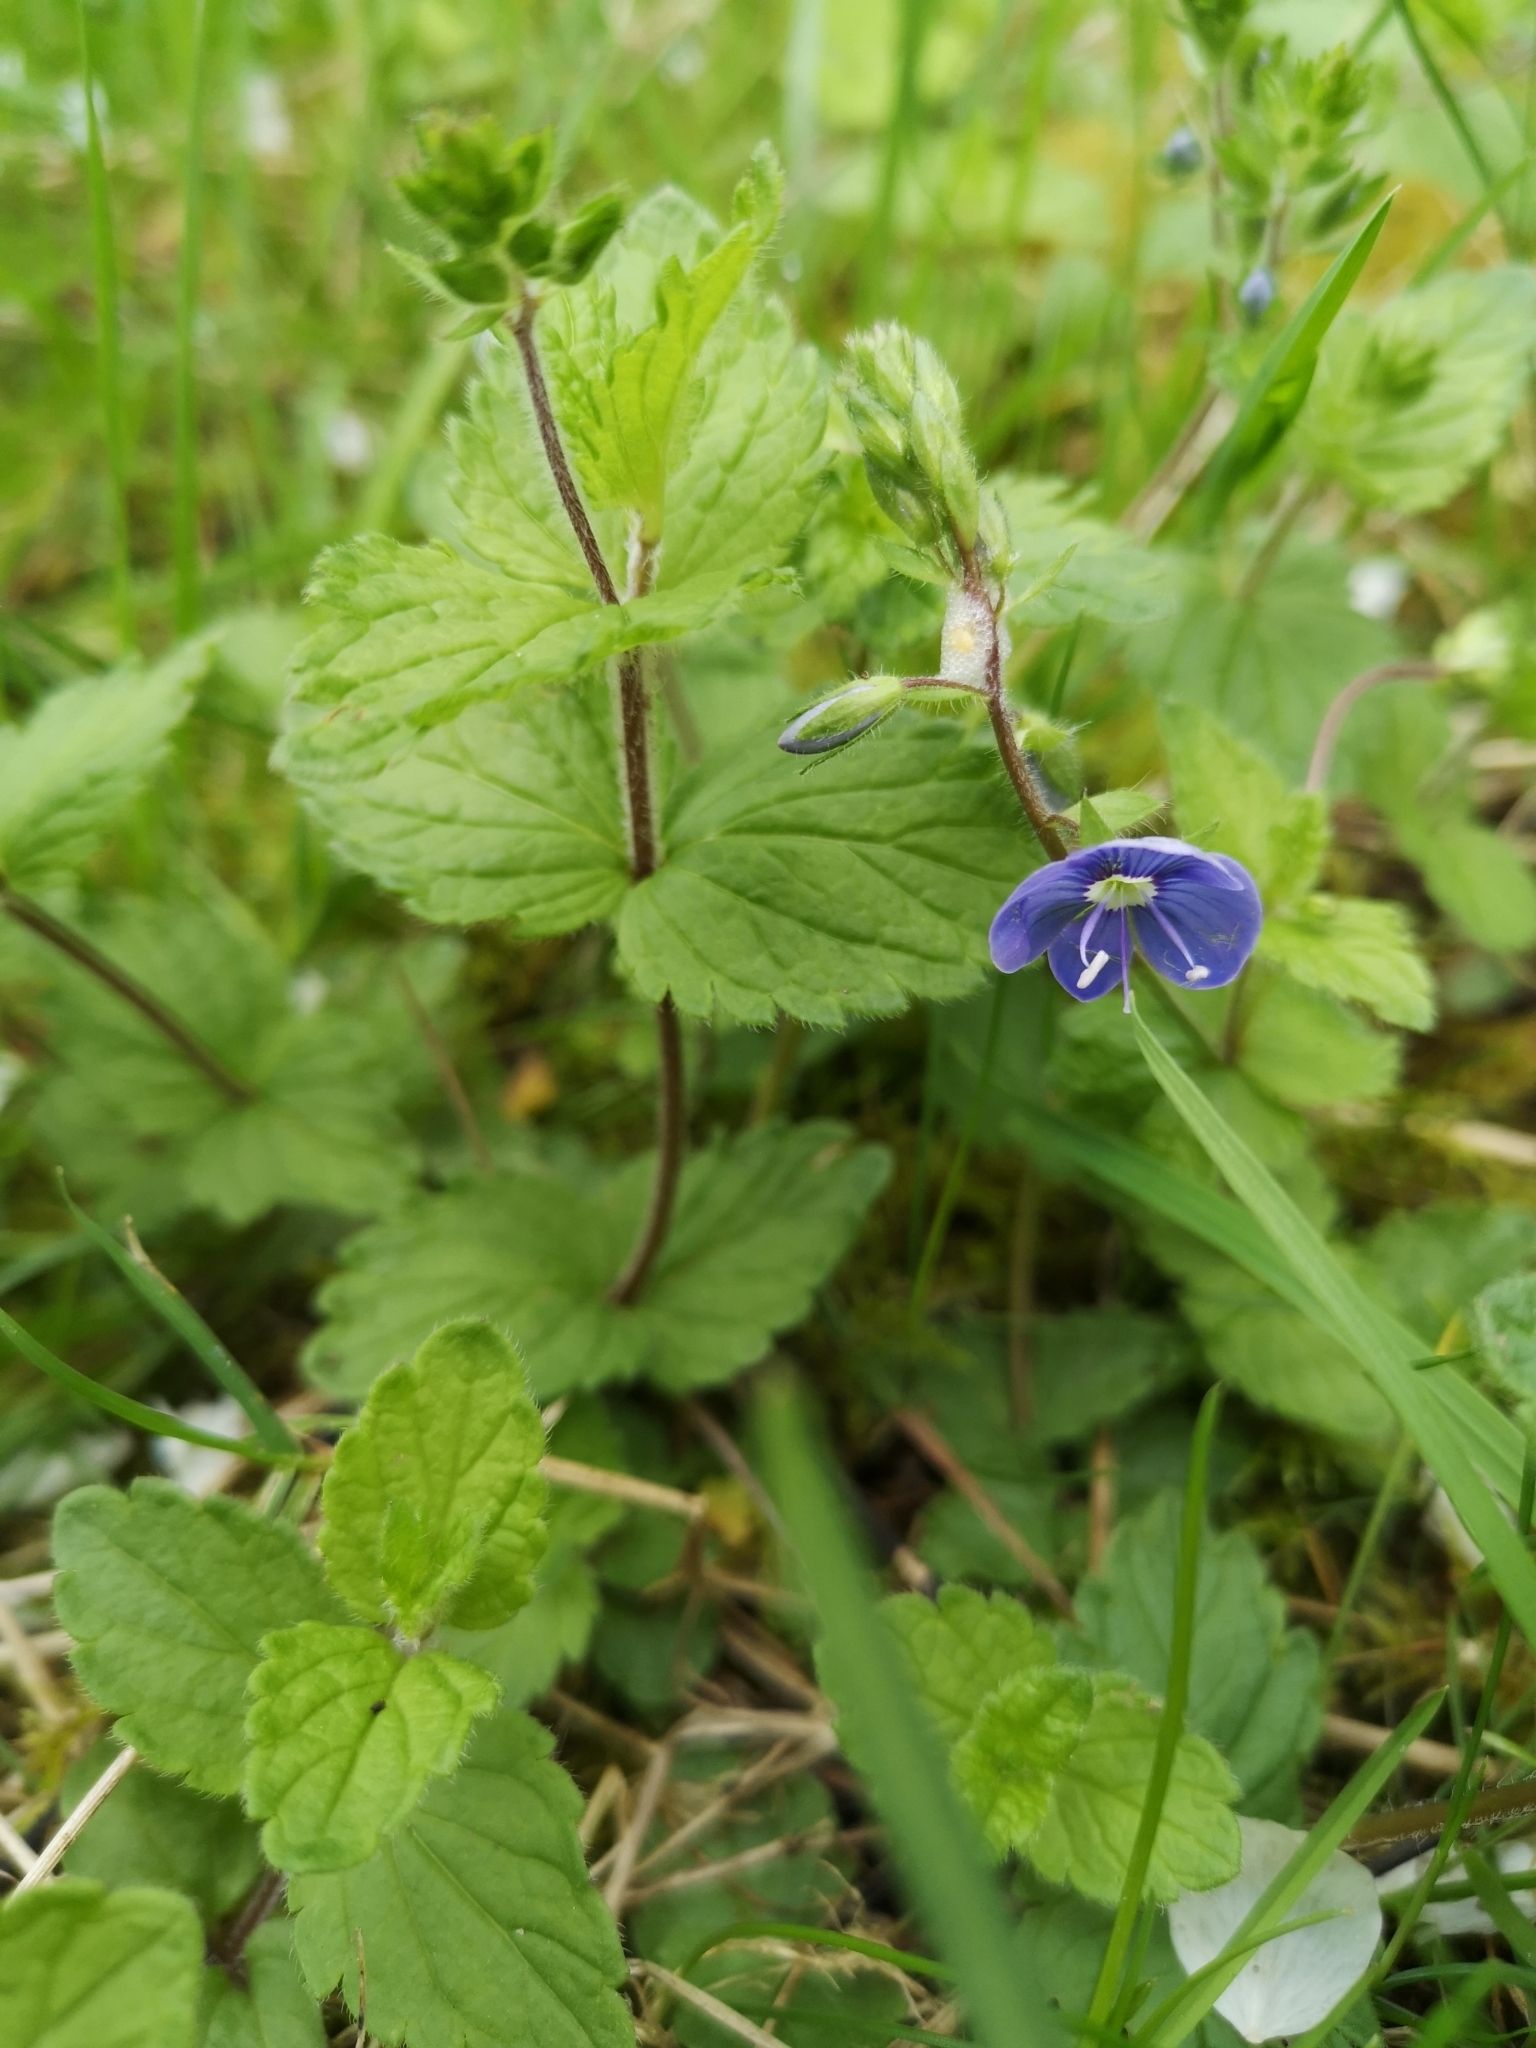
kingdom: Plantae
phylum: Tracheophyta
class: Magnoliopsida
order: Lamiales
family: Plantaginaceae
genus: Veronica
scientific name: Veronica chamaedrys
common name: Germander speedwell
